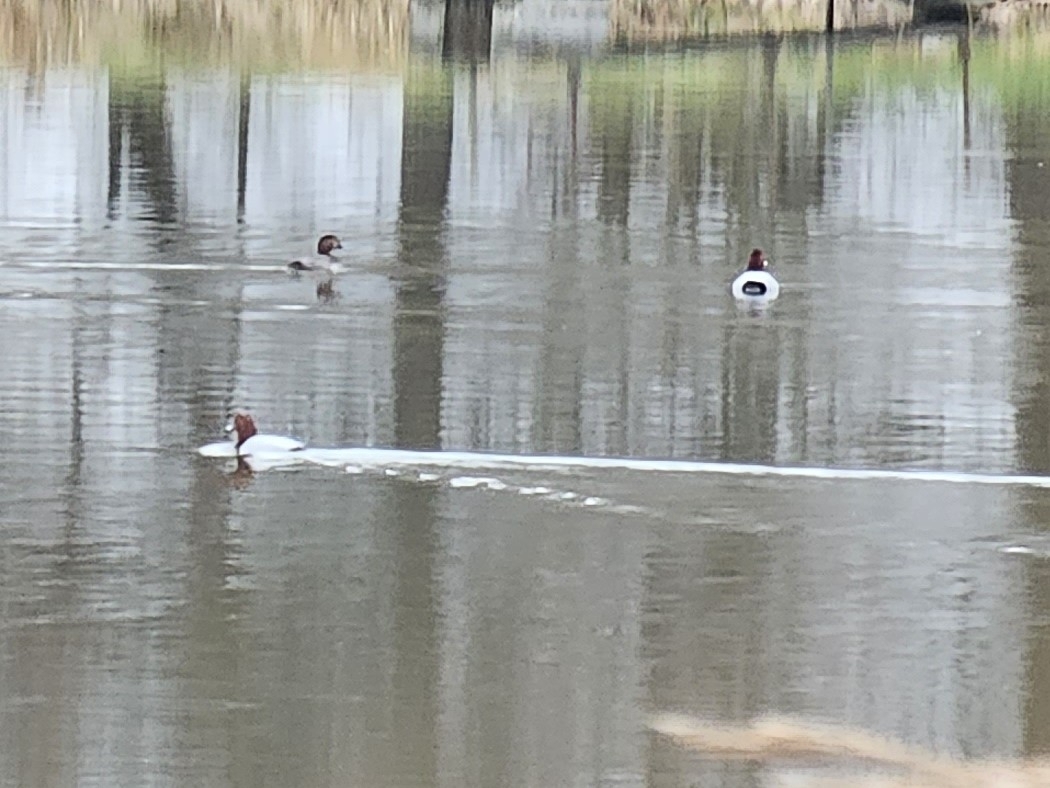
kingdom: Animalia
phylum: Chordata
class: Aves
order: Anseriformes
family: Anatidae
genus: Aythya
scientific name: Aythya ferina
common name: Common pochard
